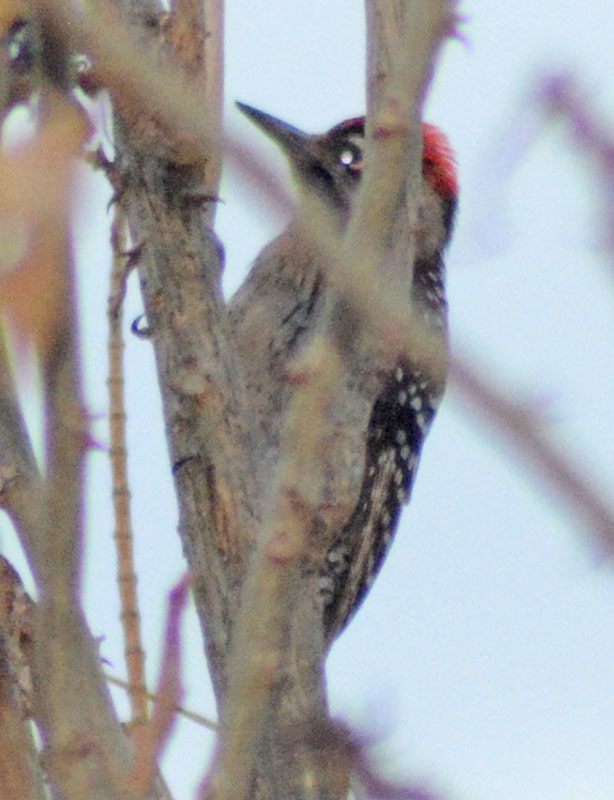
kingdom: Animalia
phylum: Chordata
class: Aves
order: Piciformes
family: Picidae
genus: Dryobates
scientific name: Dryobates scalaris
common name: Ladder-backed woodpecker
